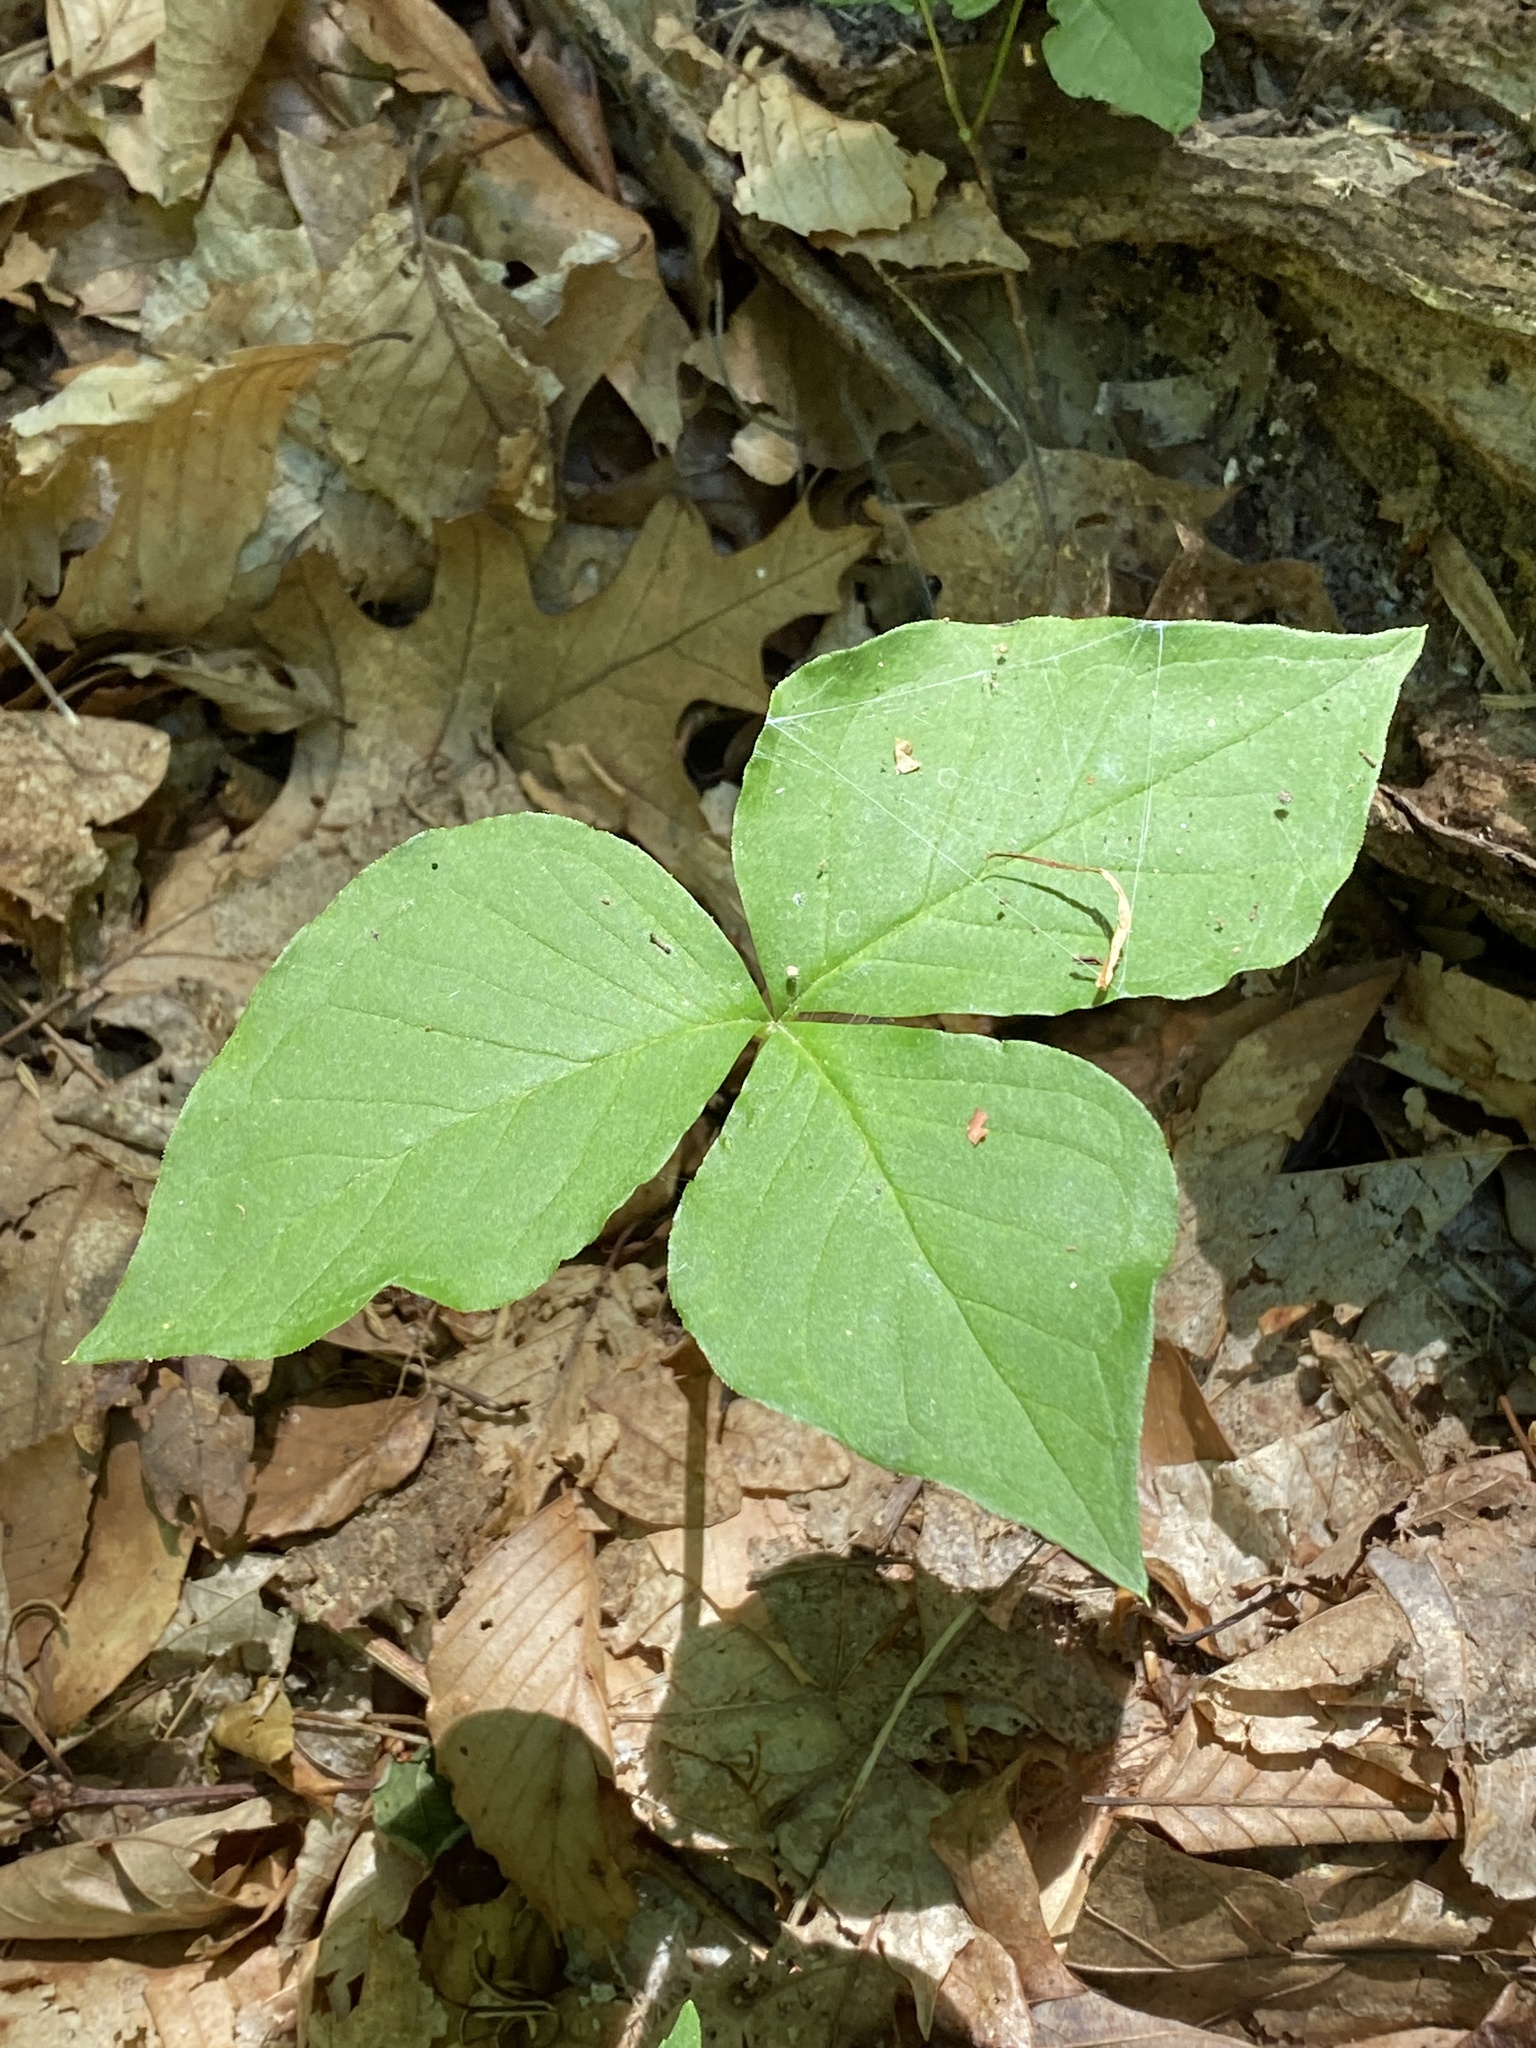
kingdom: Plantae
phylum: Tracheophyta
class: Liliopsida
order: Alismatales
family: Araceae
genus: Arisaema
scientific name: Arisaema triphyllum
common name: Jack-in-the-pulpit
